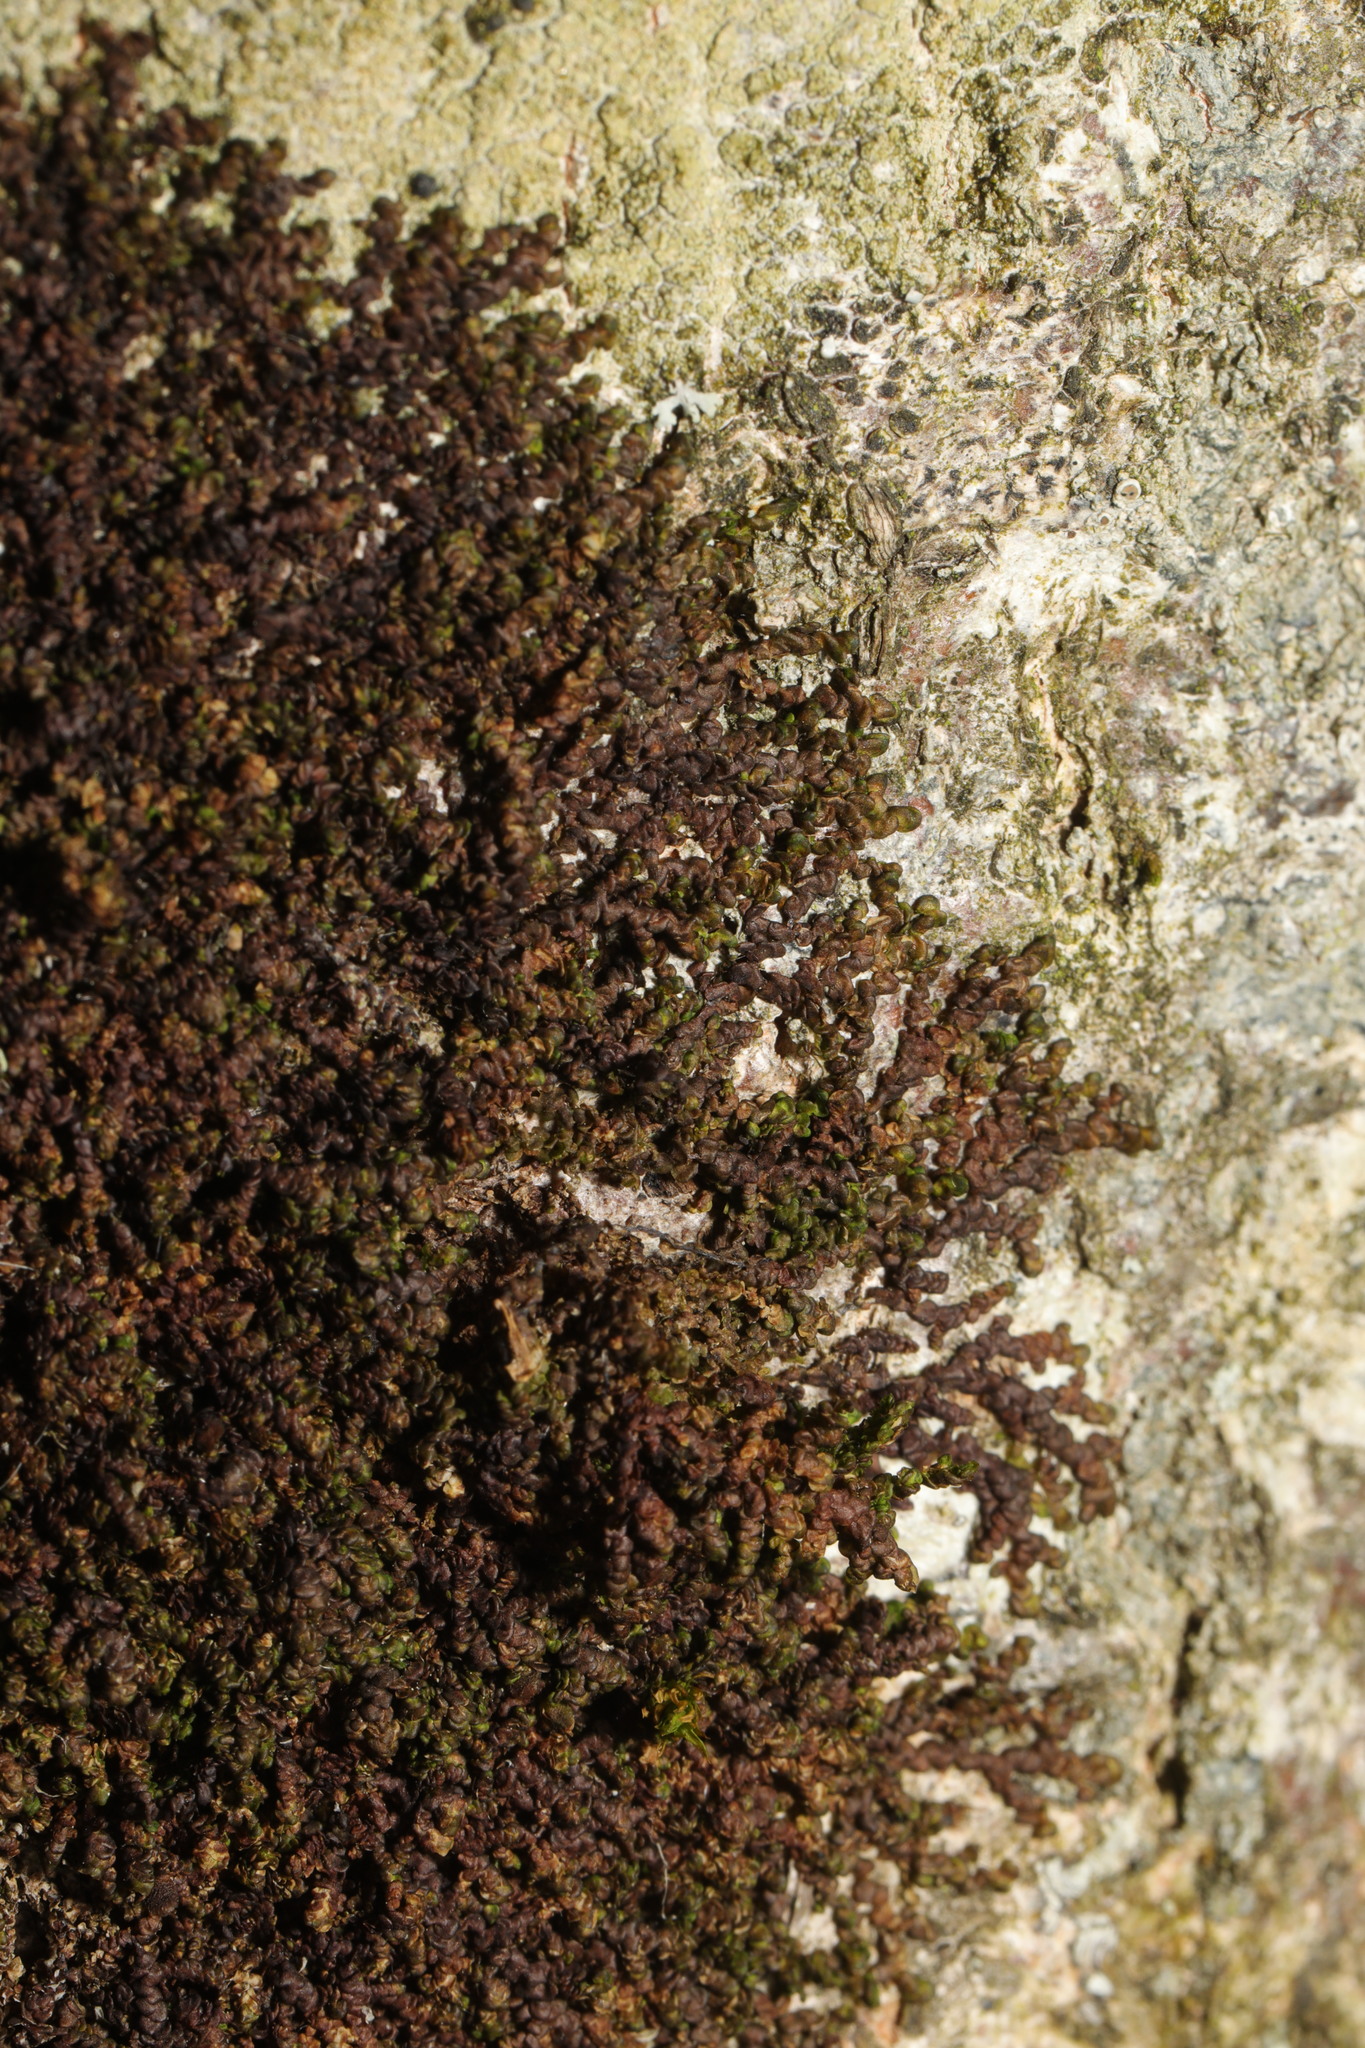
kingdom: Plantae
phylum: Marchantiophyta
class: Jungermanniopsida
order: Porellales
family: Frullaniaceae
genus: Frullania
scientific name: Frullania dilatata
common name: Dilated scalewort
